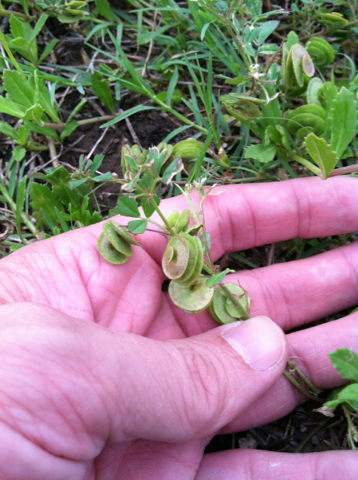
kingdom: Plantae
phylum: Tracheophyta
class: Magnoliopsida
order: Fabales
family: Fabaceae
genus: Medicago
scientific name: Medicago orbicularis
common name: Button medick
